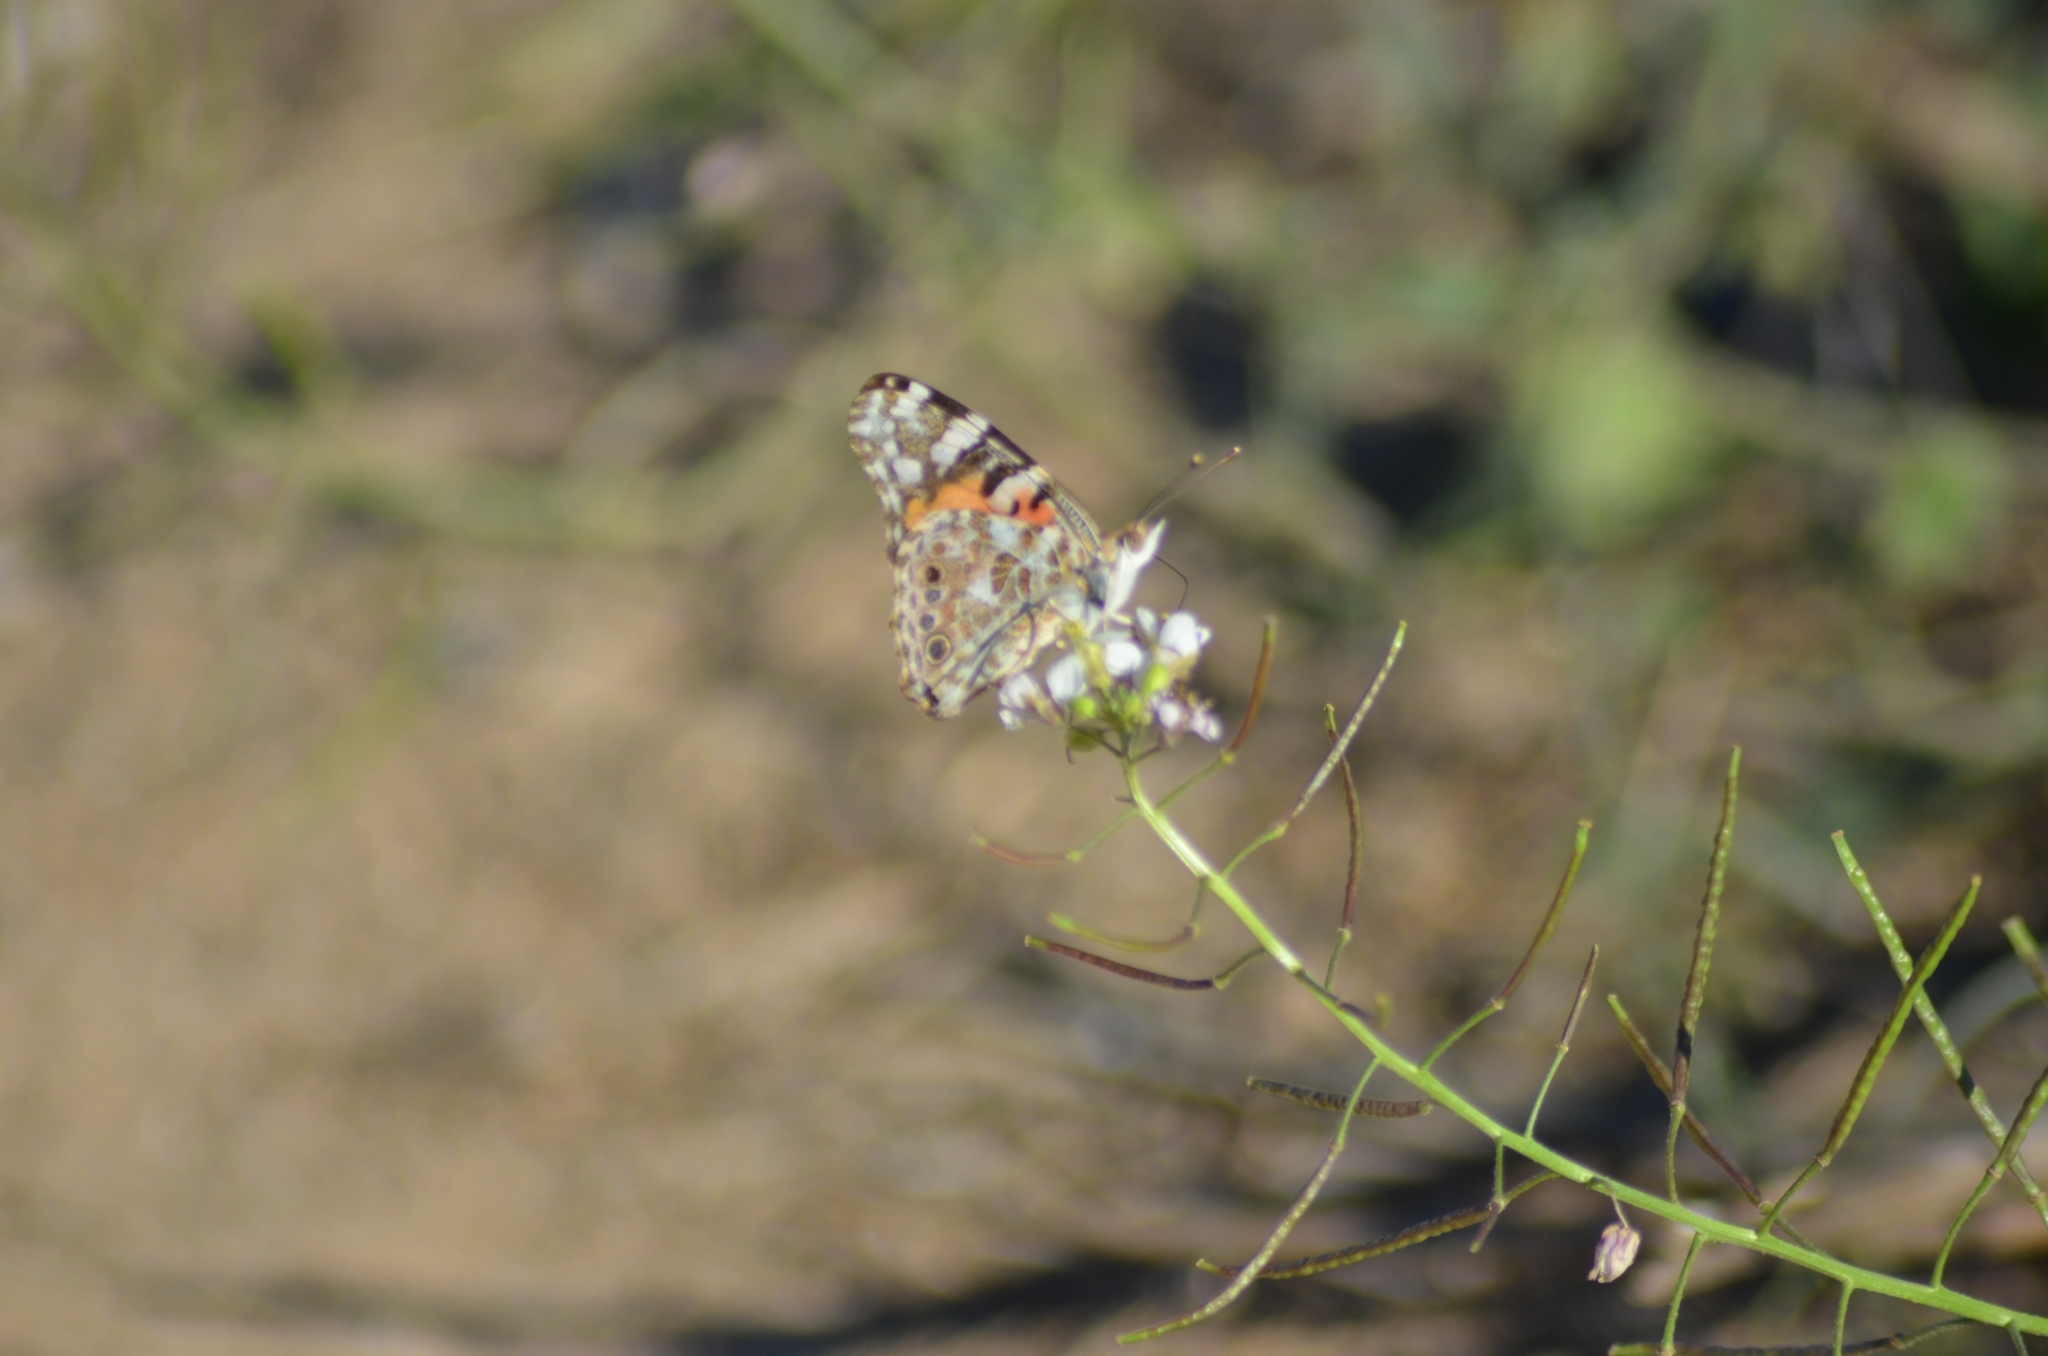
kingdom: Animalia
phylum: Arthropoda
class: Insecta
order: Lepidoptera
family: Nymphalidae
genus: Vanessa
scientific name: Vanessa cardui
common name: Painted lady
